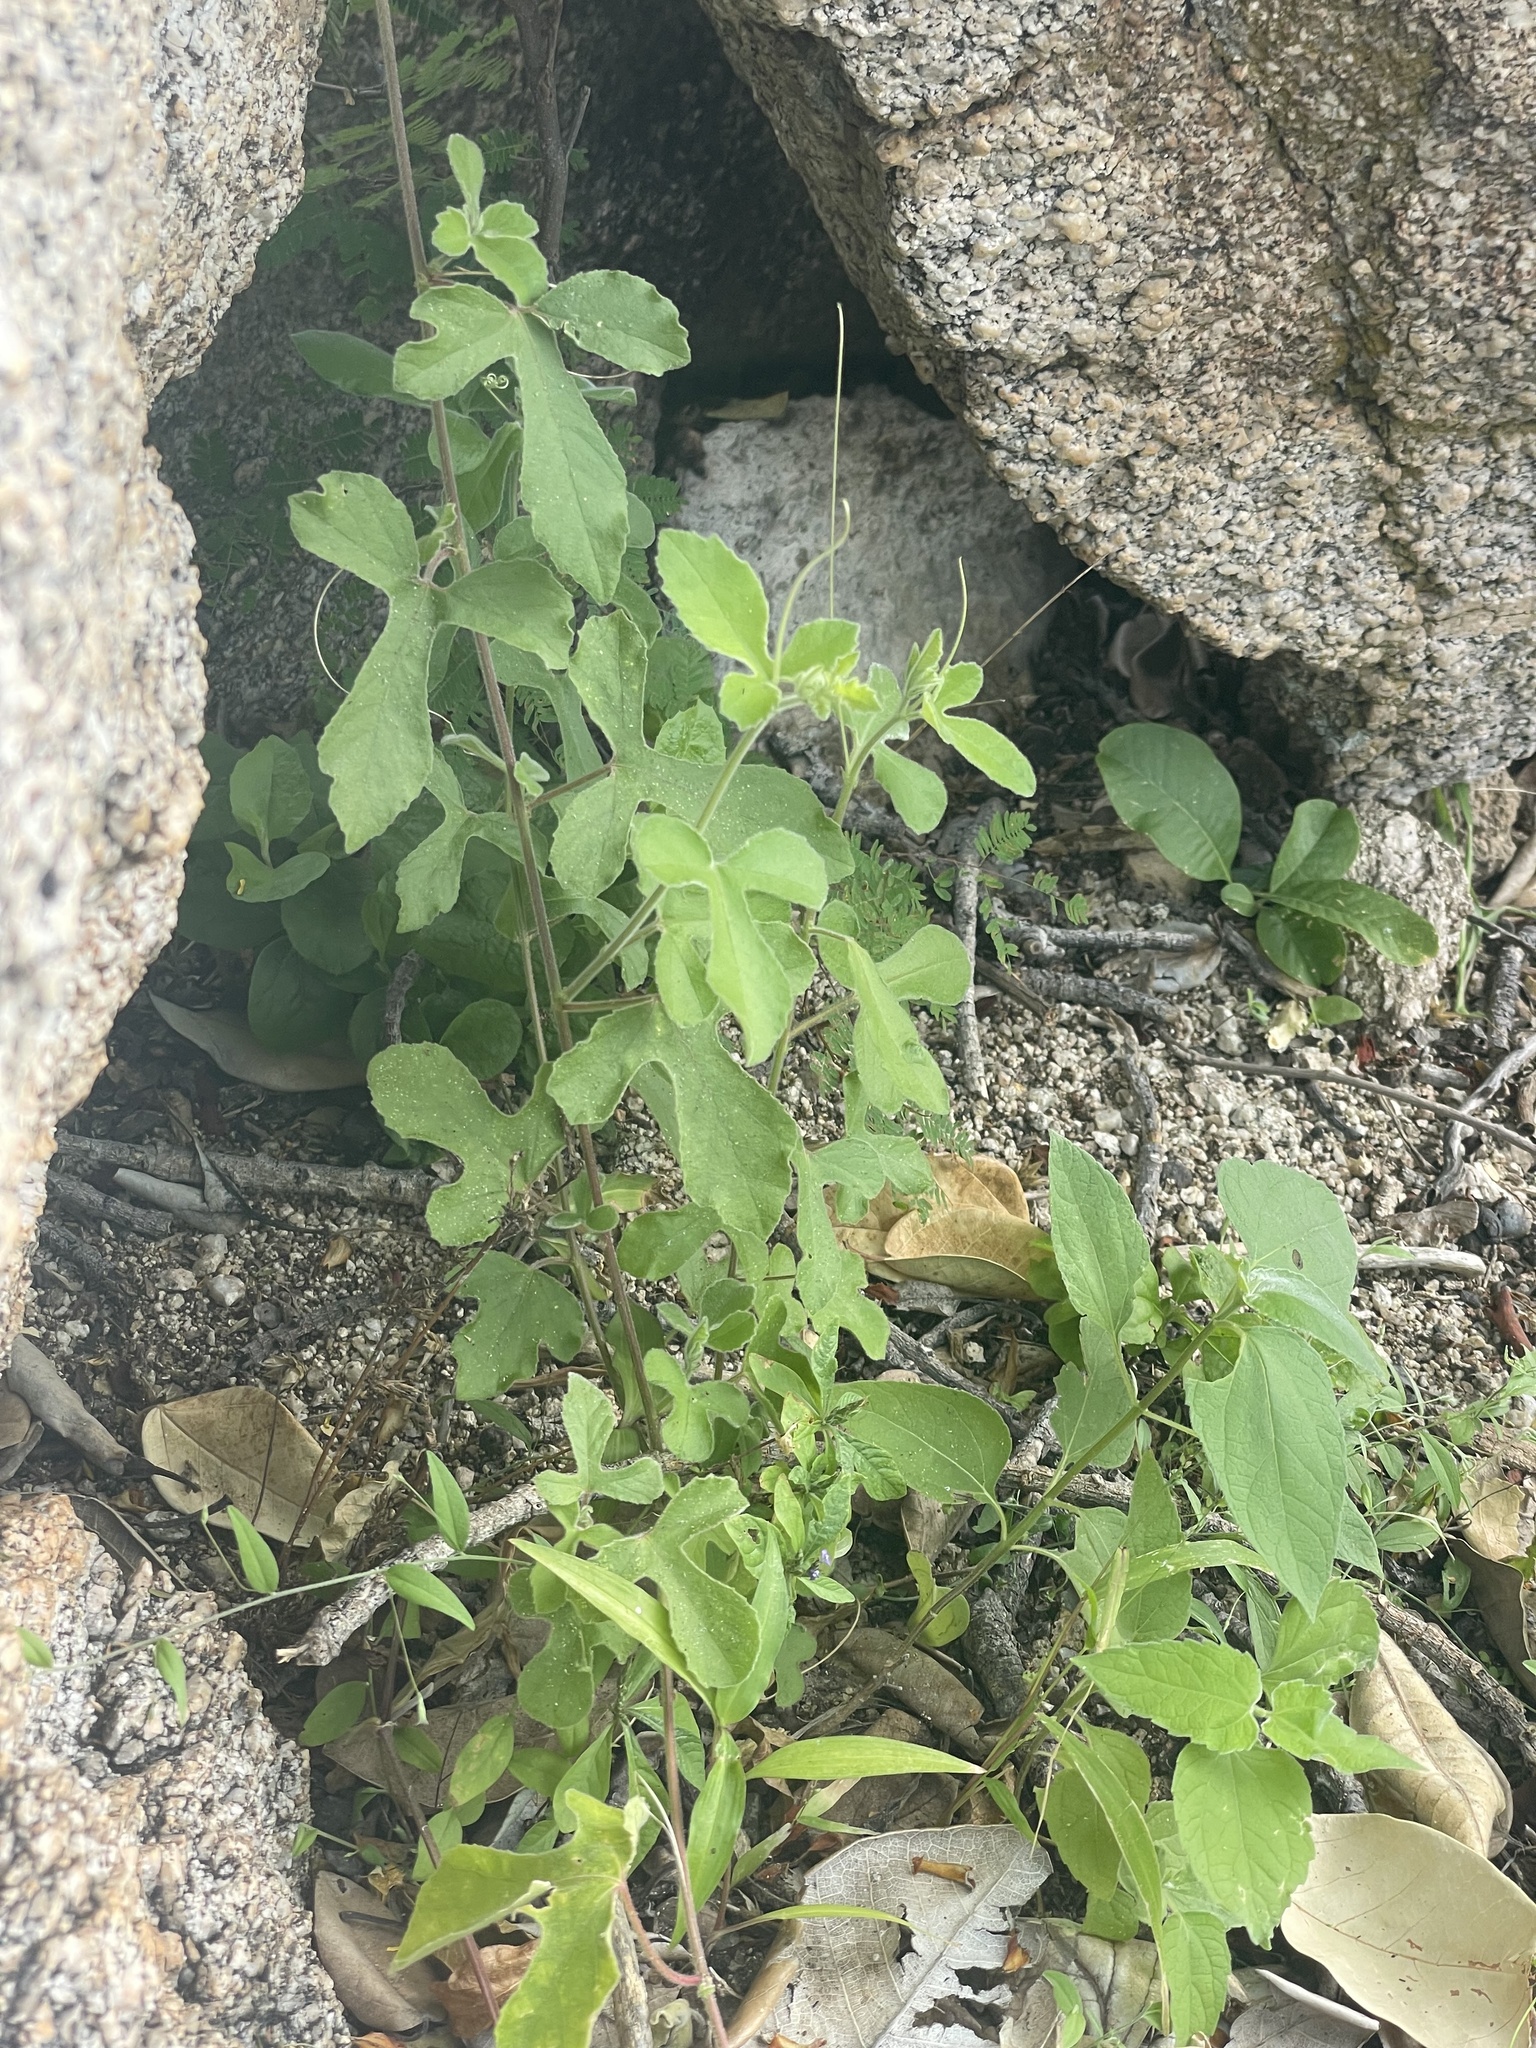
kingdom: Plantae
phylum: Tracheophyta
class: Magnoliopsida
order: Malpighiales
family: Passifloraceae
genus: Passiflora
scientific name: Passiflora pentaschista
